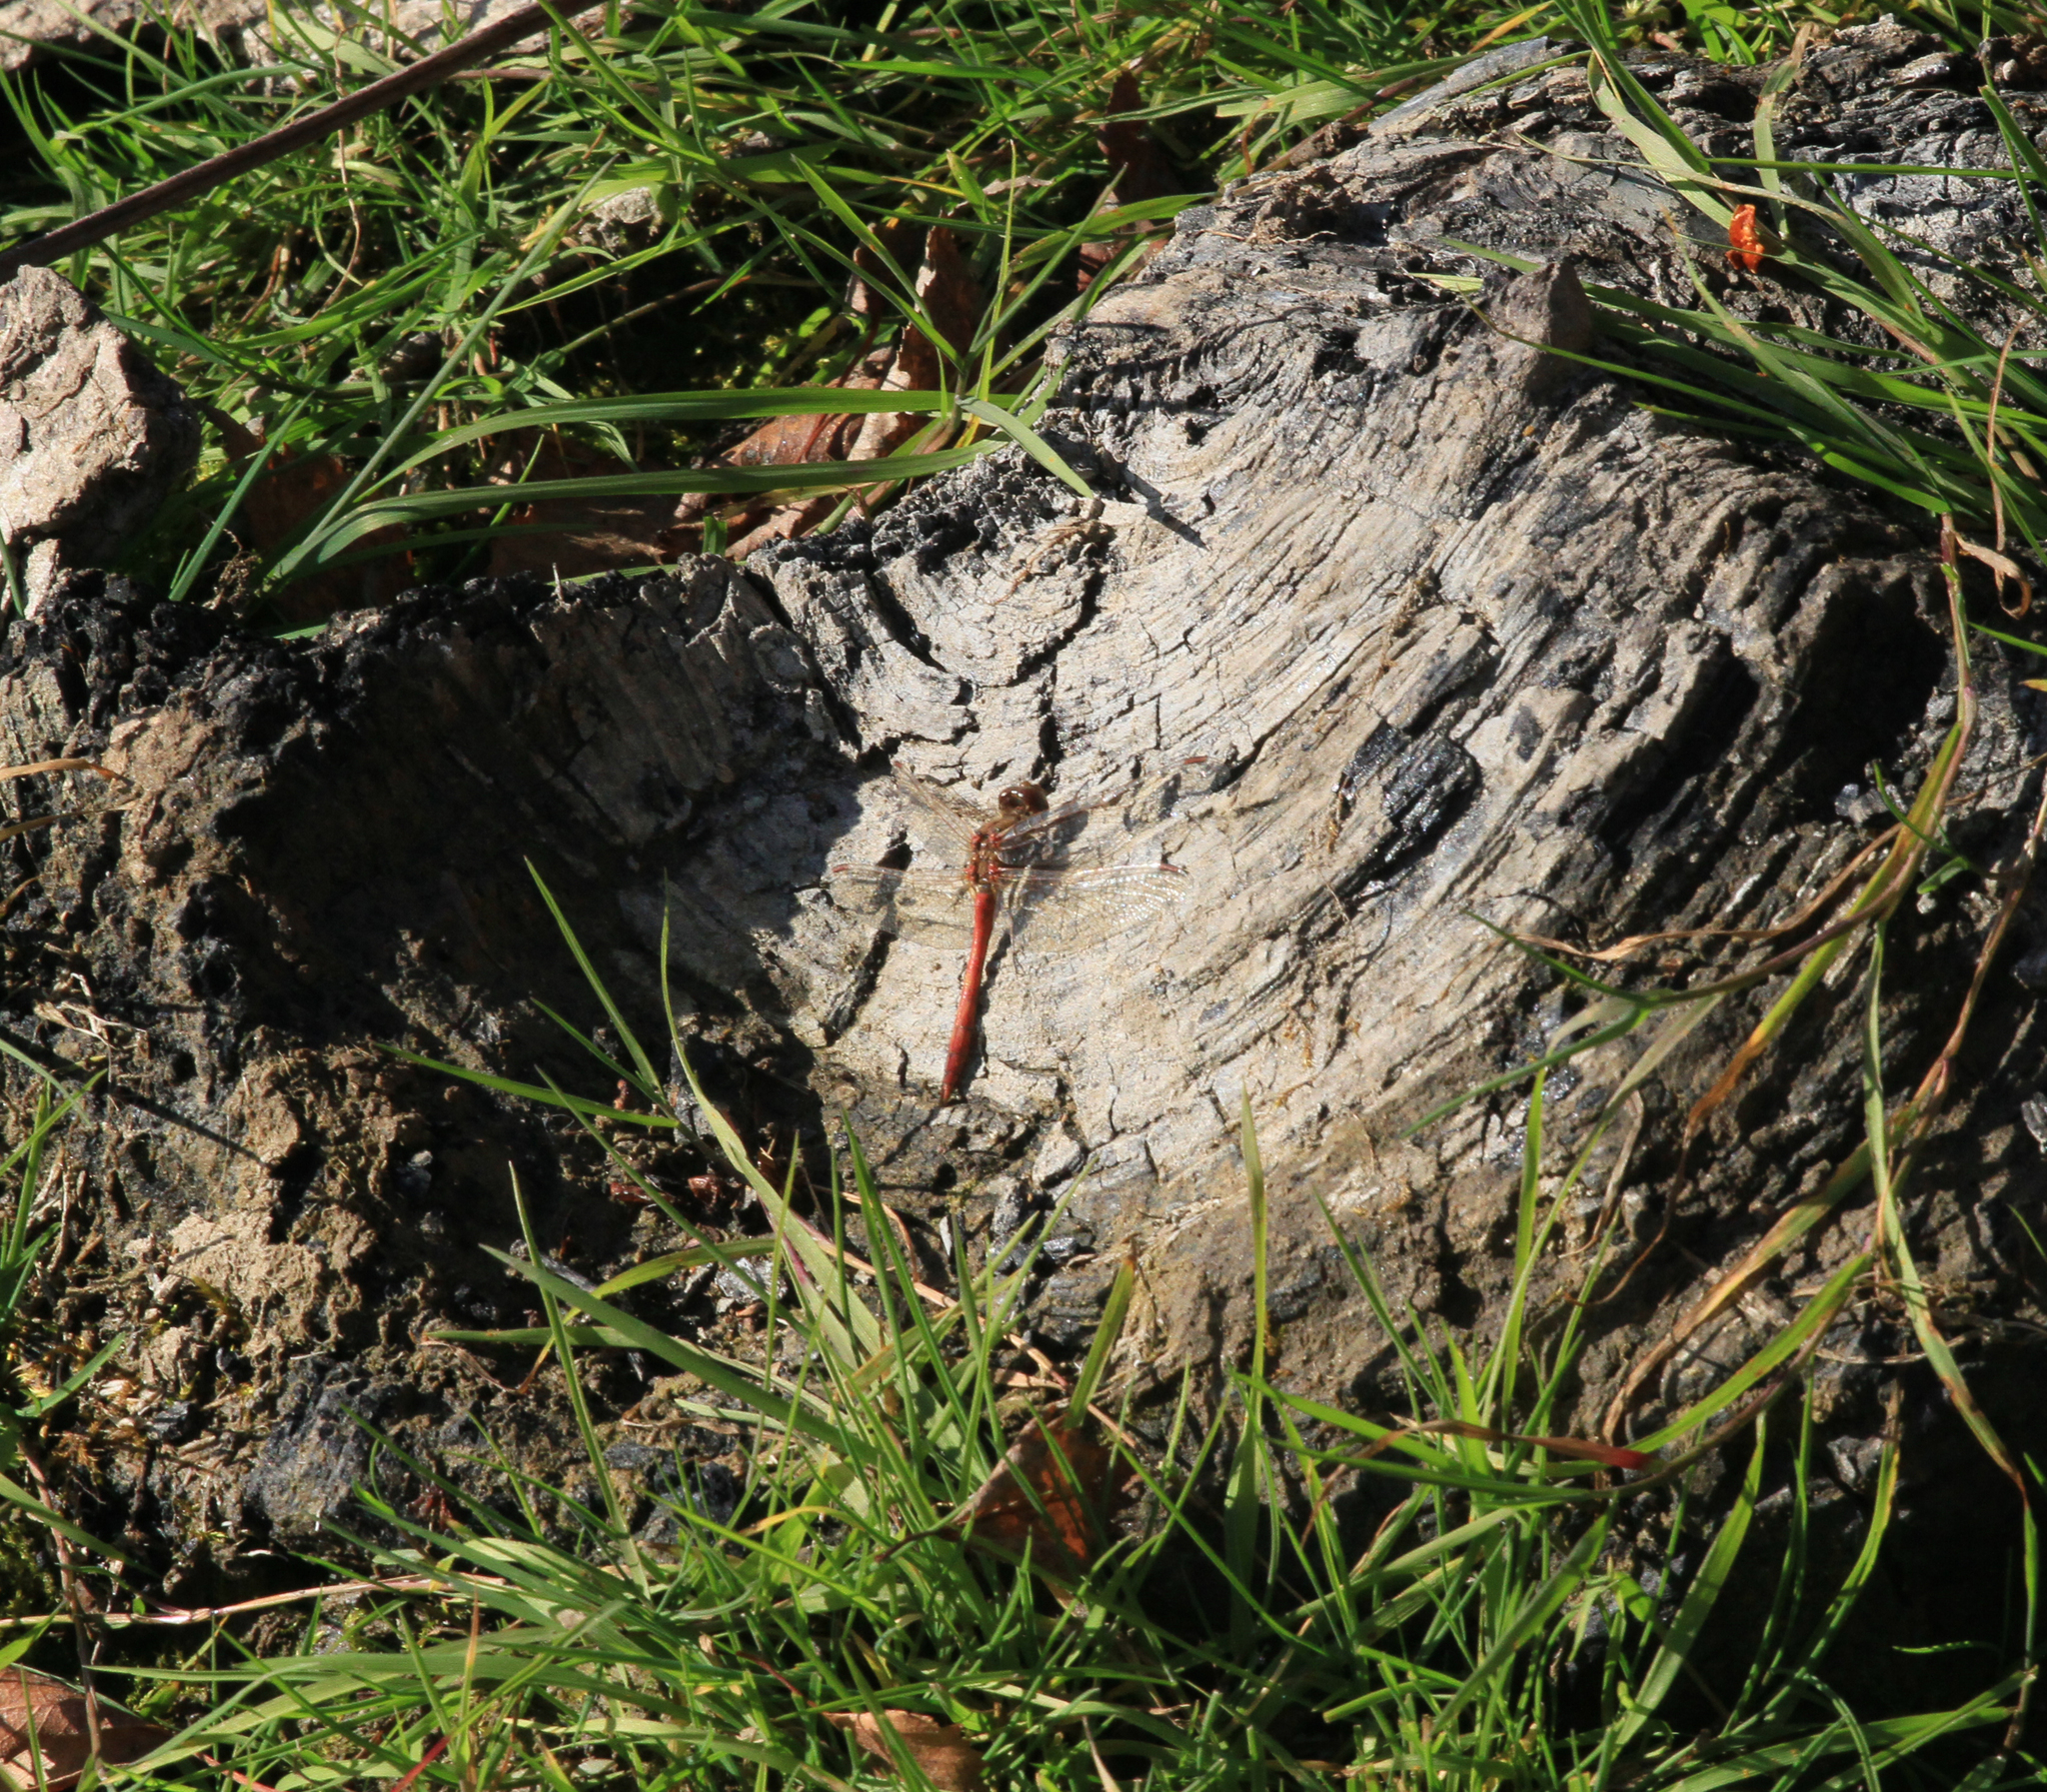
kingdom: Animalia
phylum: Arthropoda
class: Insecta
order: Odonata
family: Libellulidae
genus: Sympetrum
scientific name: Sympetrum vulgatum
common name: Vagrant darter
